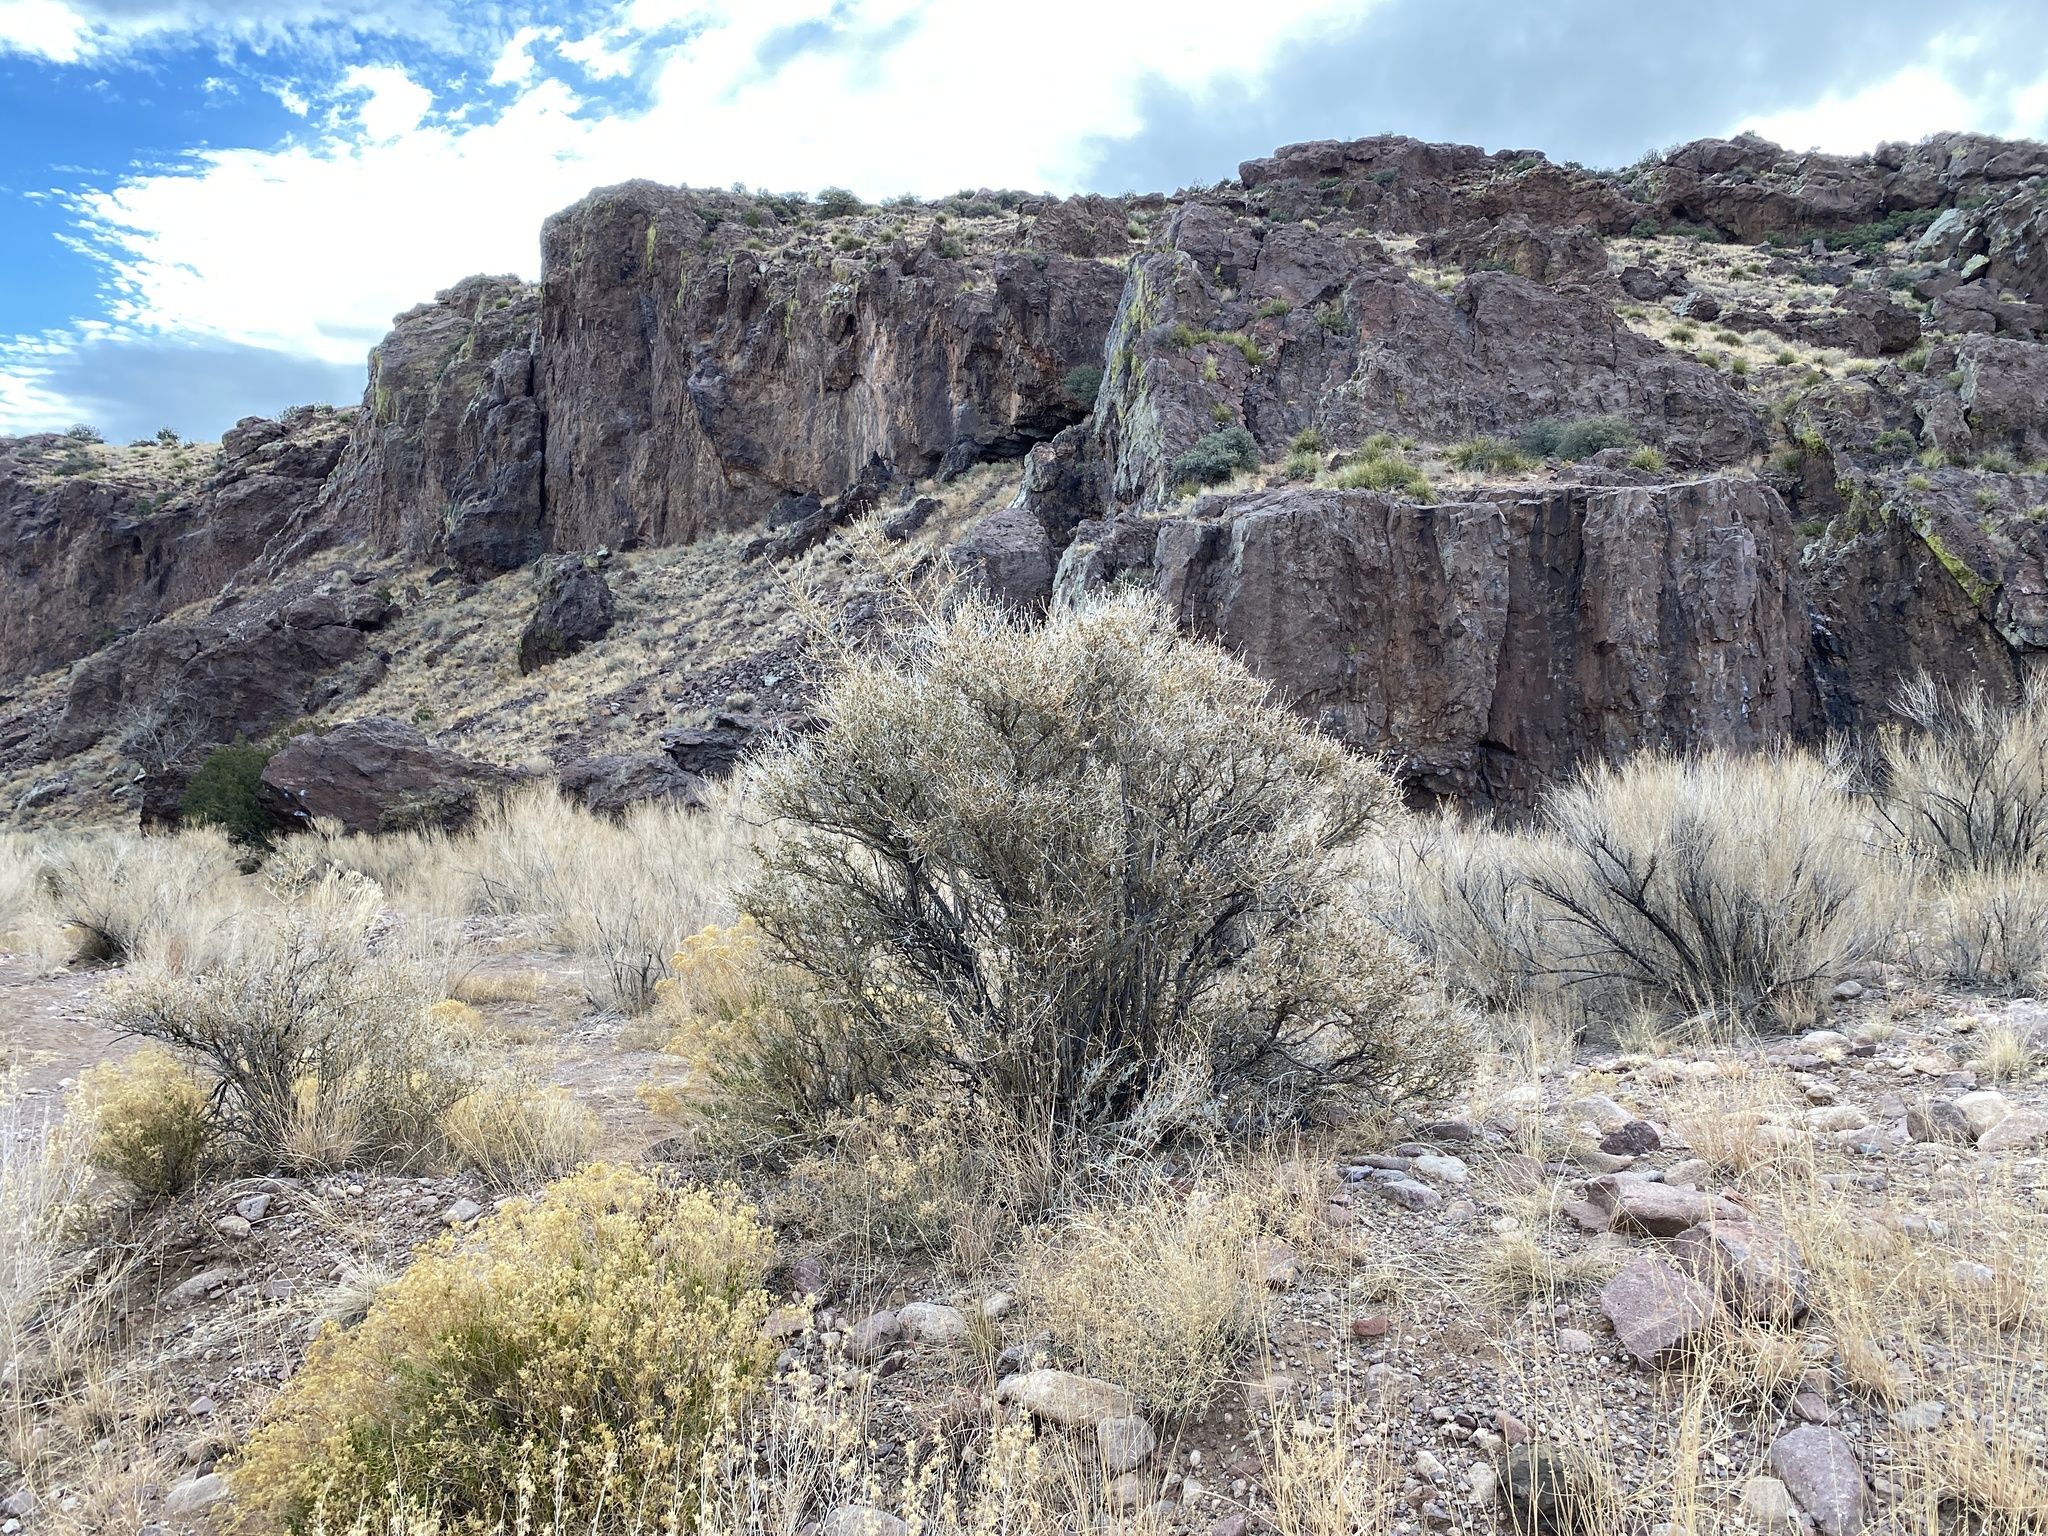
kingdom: Plantae
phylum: Tracheophyta
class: Magnoliopsida
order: Rosales
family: Rosaceae
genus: Fallugia
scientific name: Fallugia paradoxa
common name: Apache-plume
